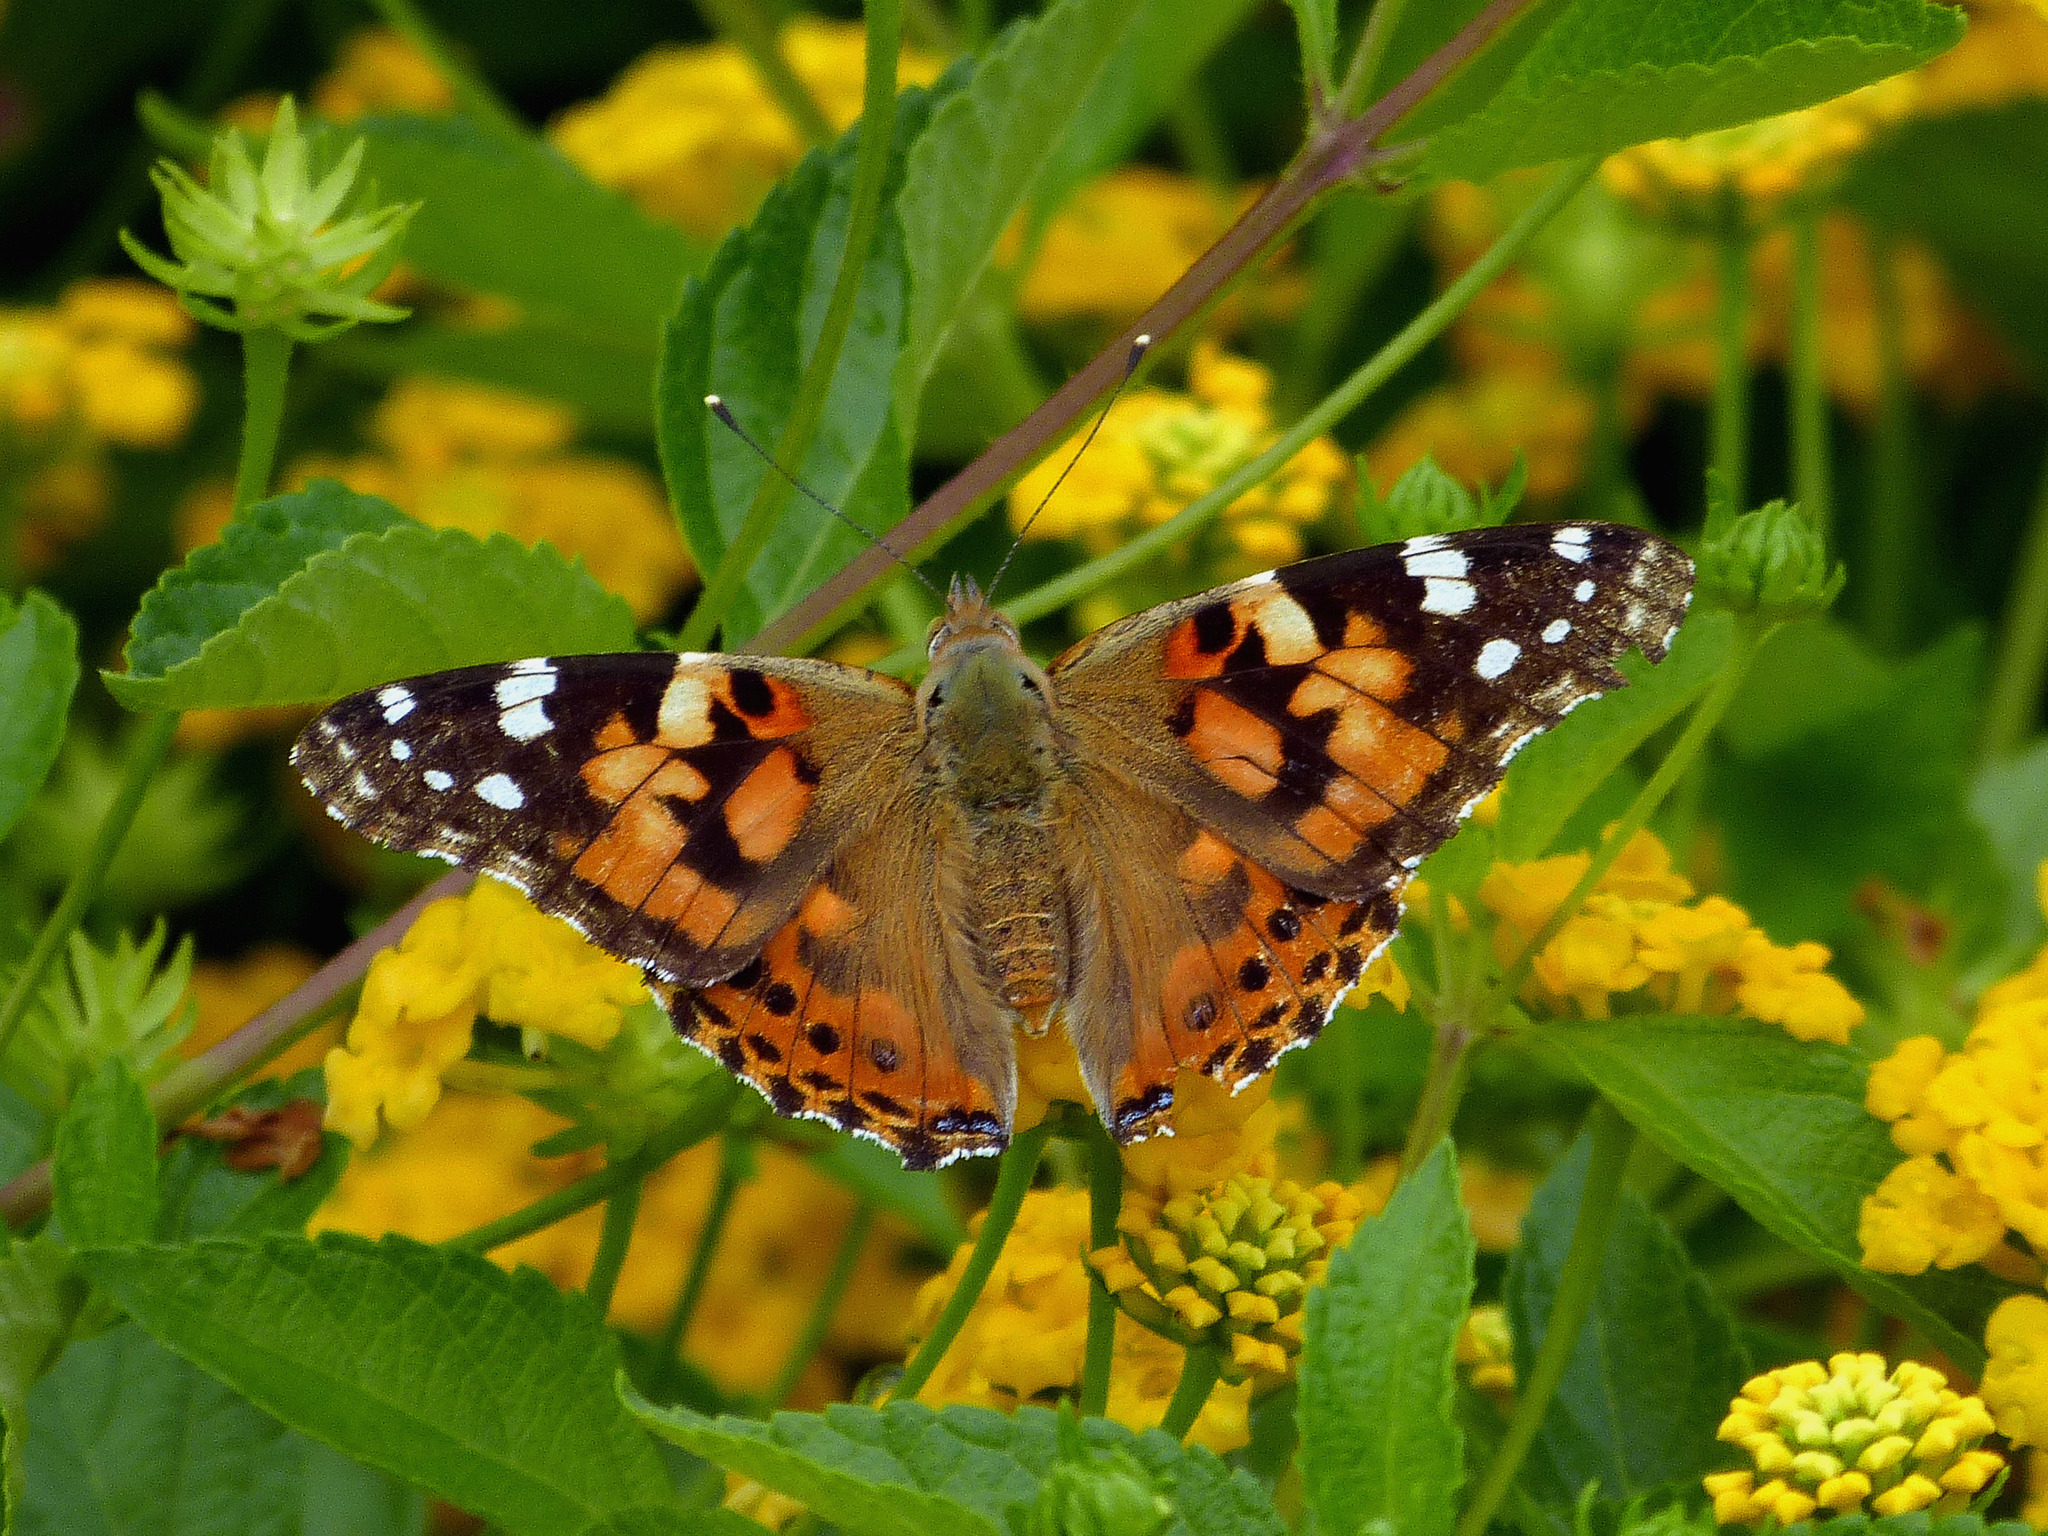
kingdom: Animalia
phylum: Arthropoda
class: Insecta
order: Lepidoptera
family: Nymphalidae
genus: Vanessa
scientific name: Vanessa cardui
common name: Painted lady
